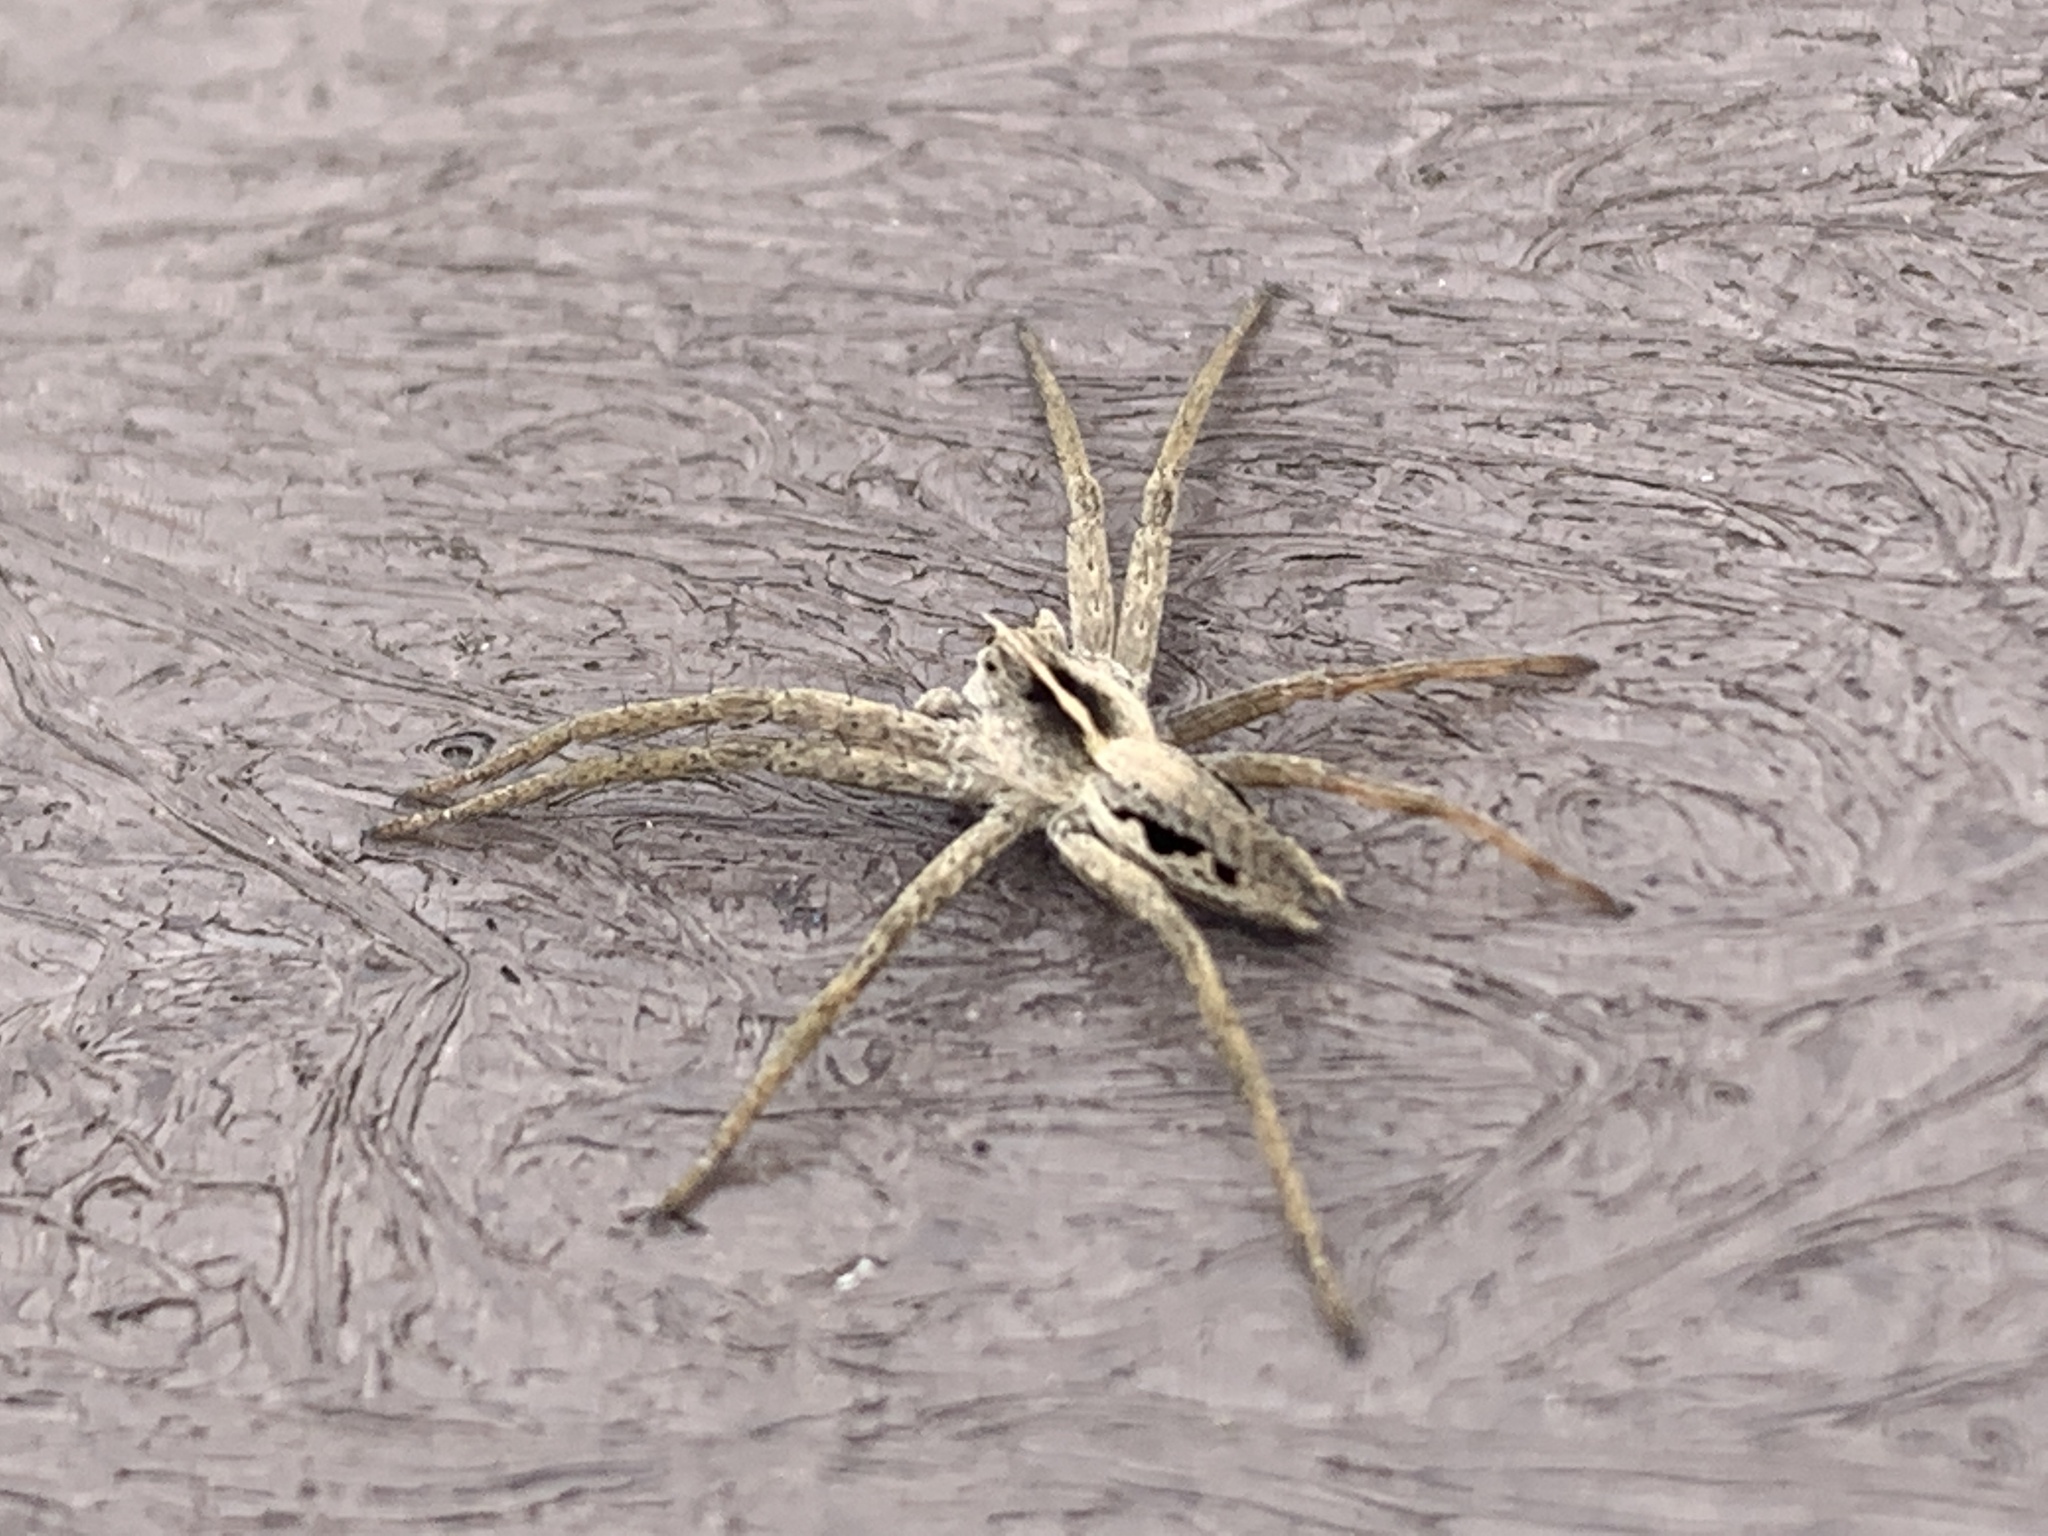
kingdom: Animalia
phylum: Arthropoda
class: Arachnida
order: Araneae
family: Pisauridae
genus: Pisaura
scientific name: Pisaura mirabilis
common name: Tent spider
